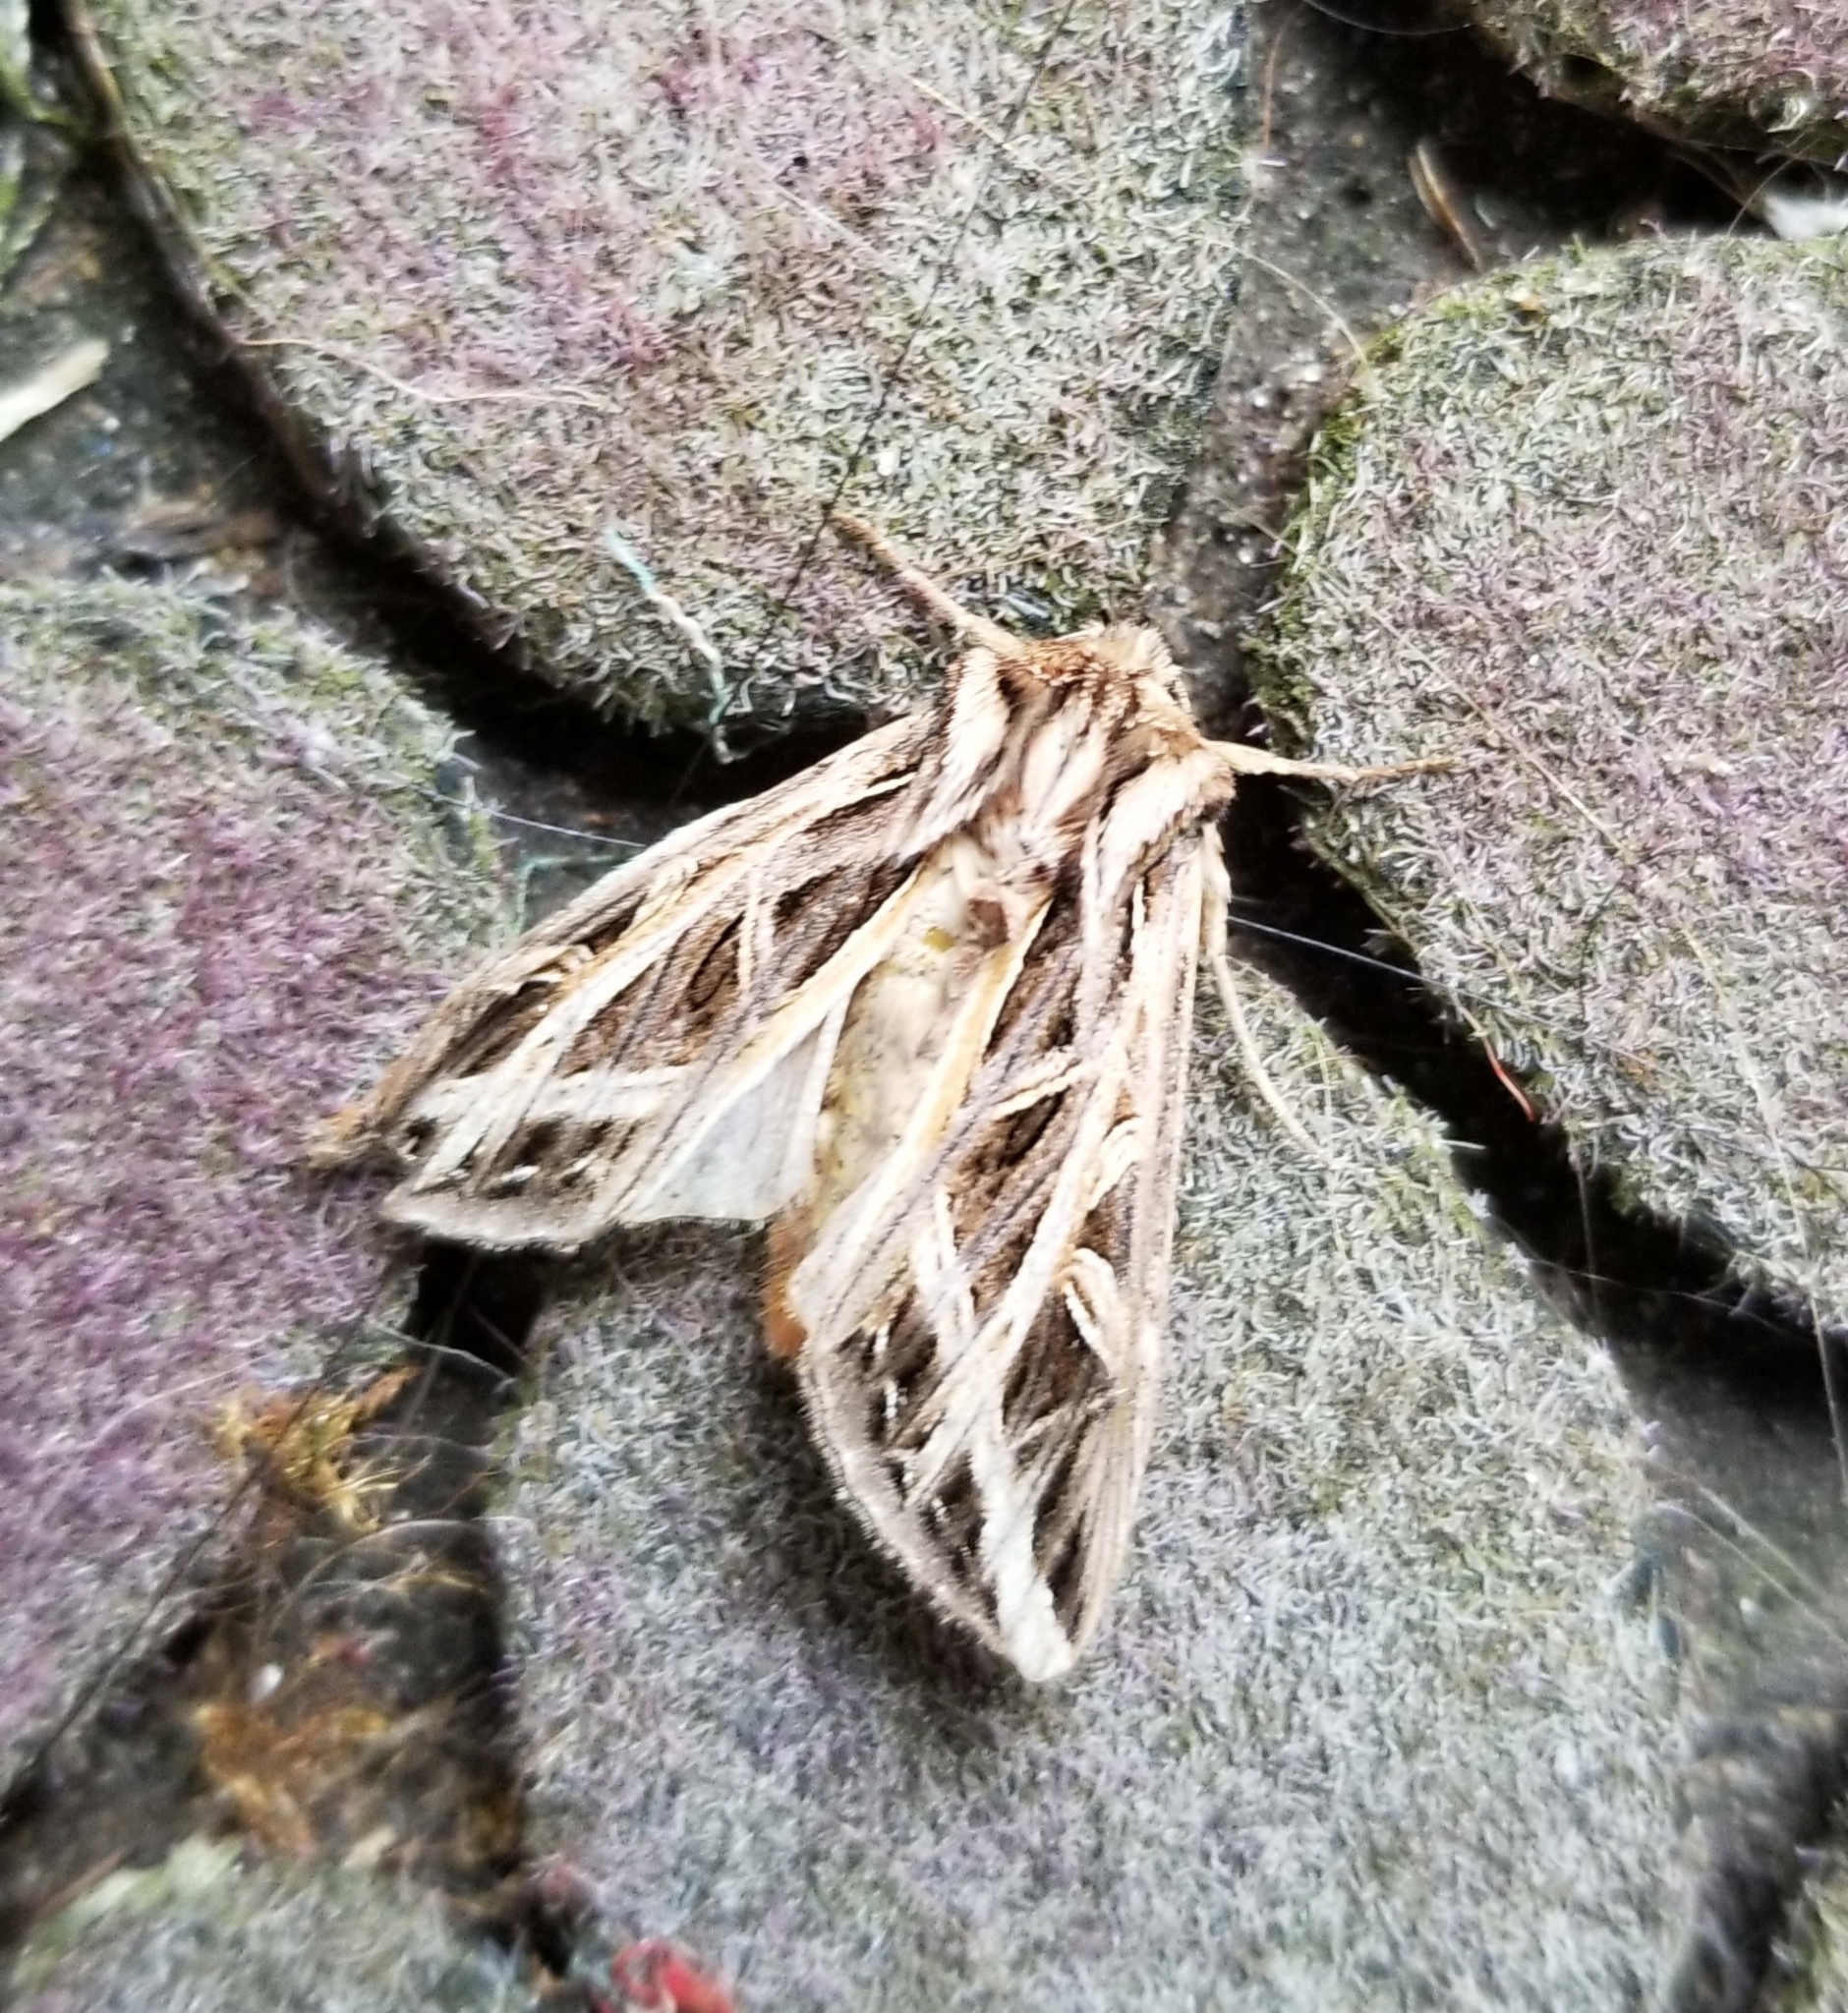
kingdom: Animalia
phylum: Arthropoda
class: Insecta
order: Lepidoptera
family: Noctuidae
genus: Dargida
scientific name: Dargida procinctus
